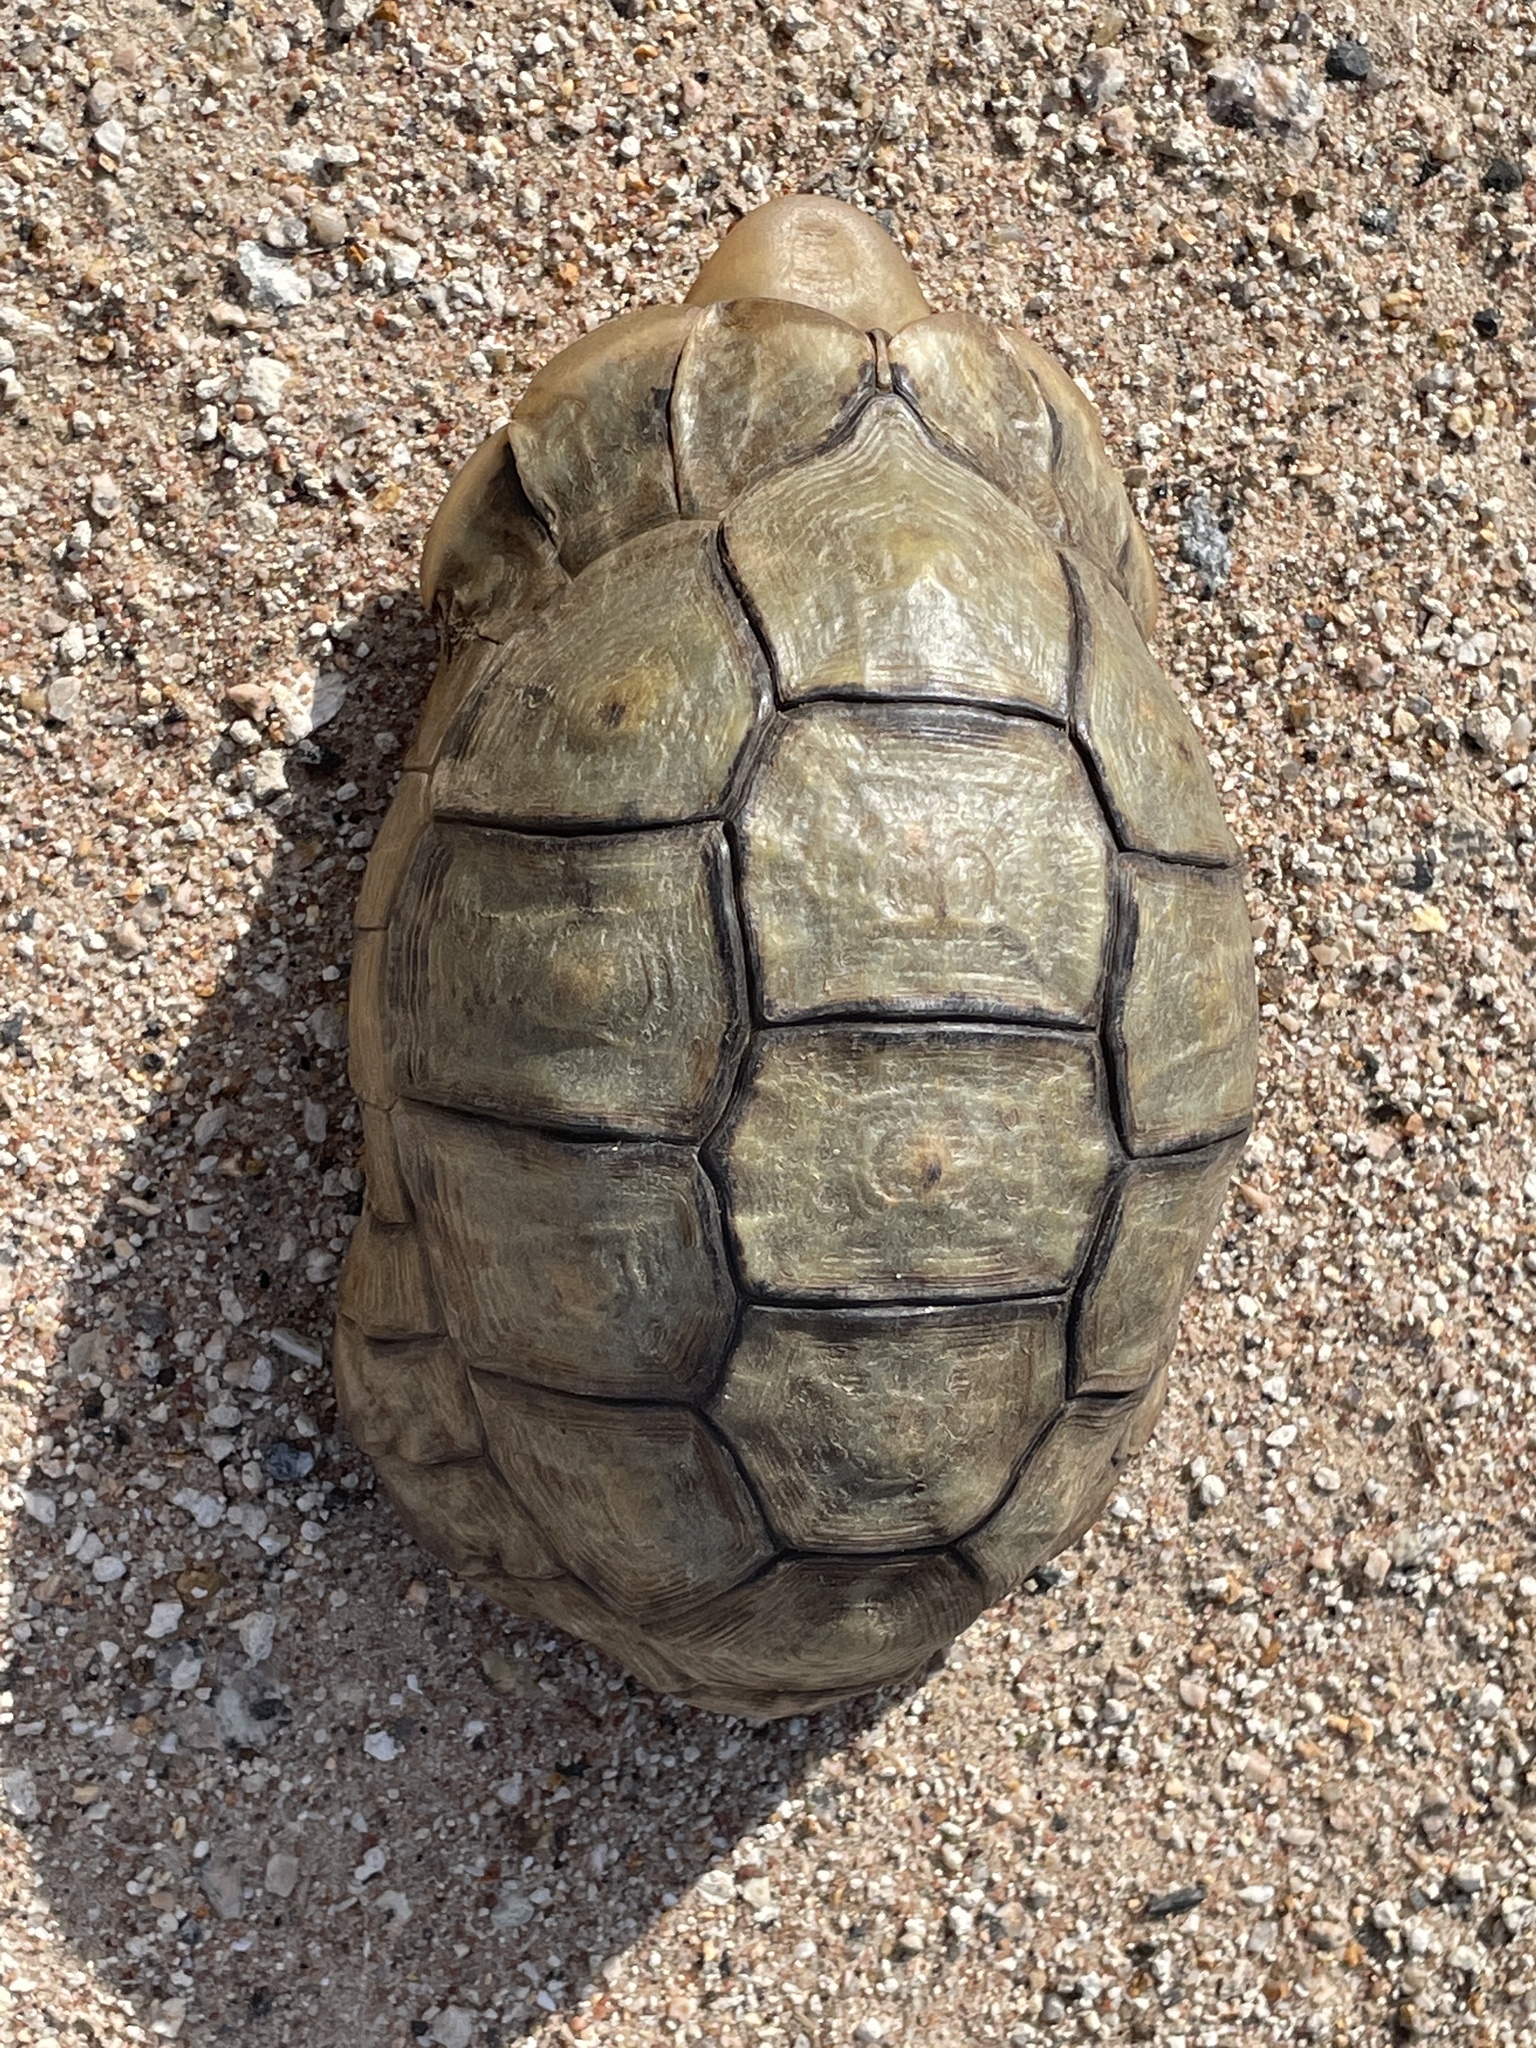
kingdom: Animalia
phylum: Chordata
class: Testudines
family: Testudinidae
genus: Chersina
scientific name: Chersina angulata
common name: South african bowsprit tortoise
